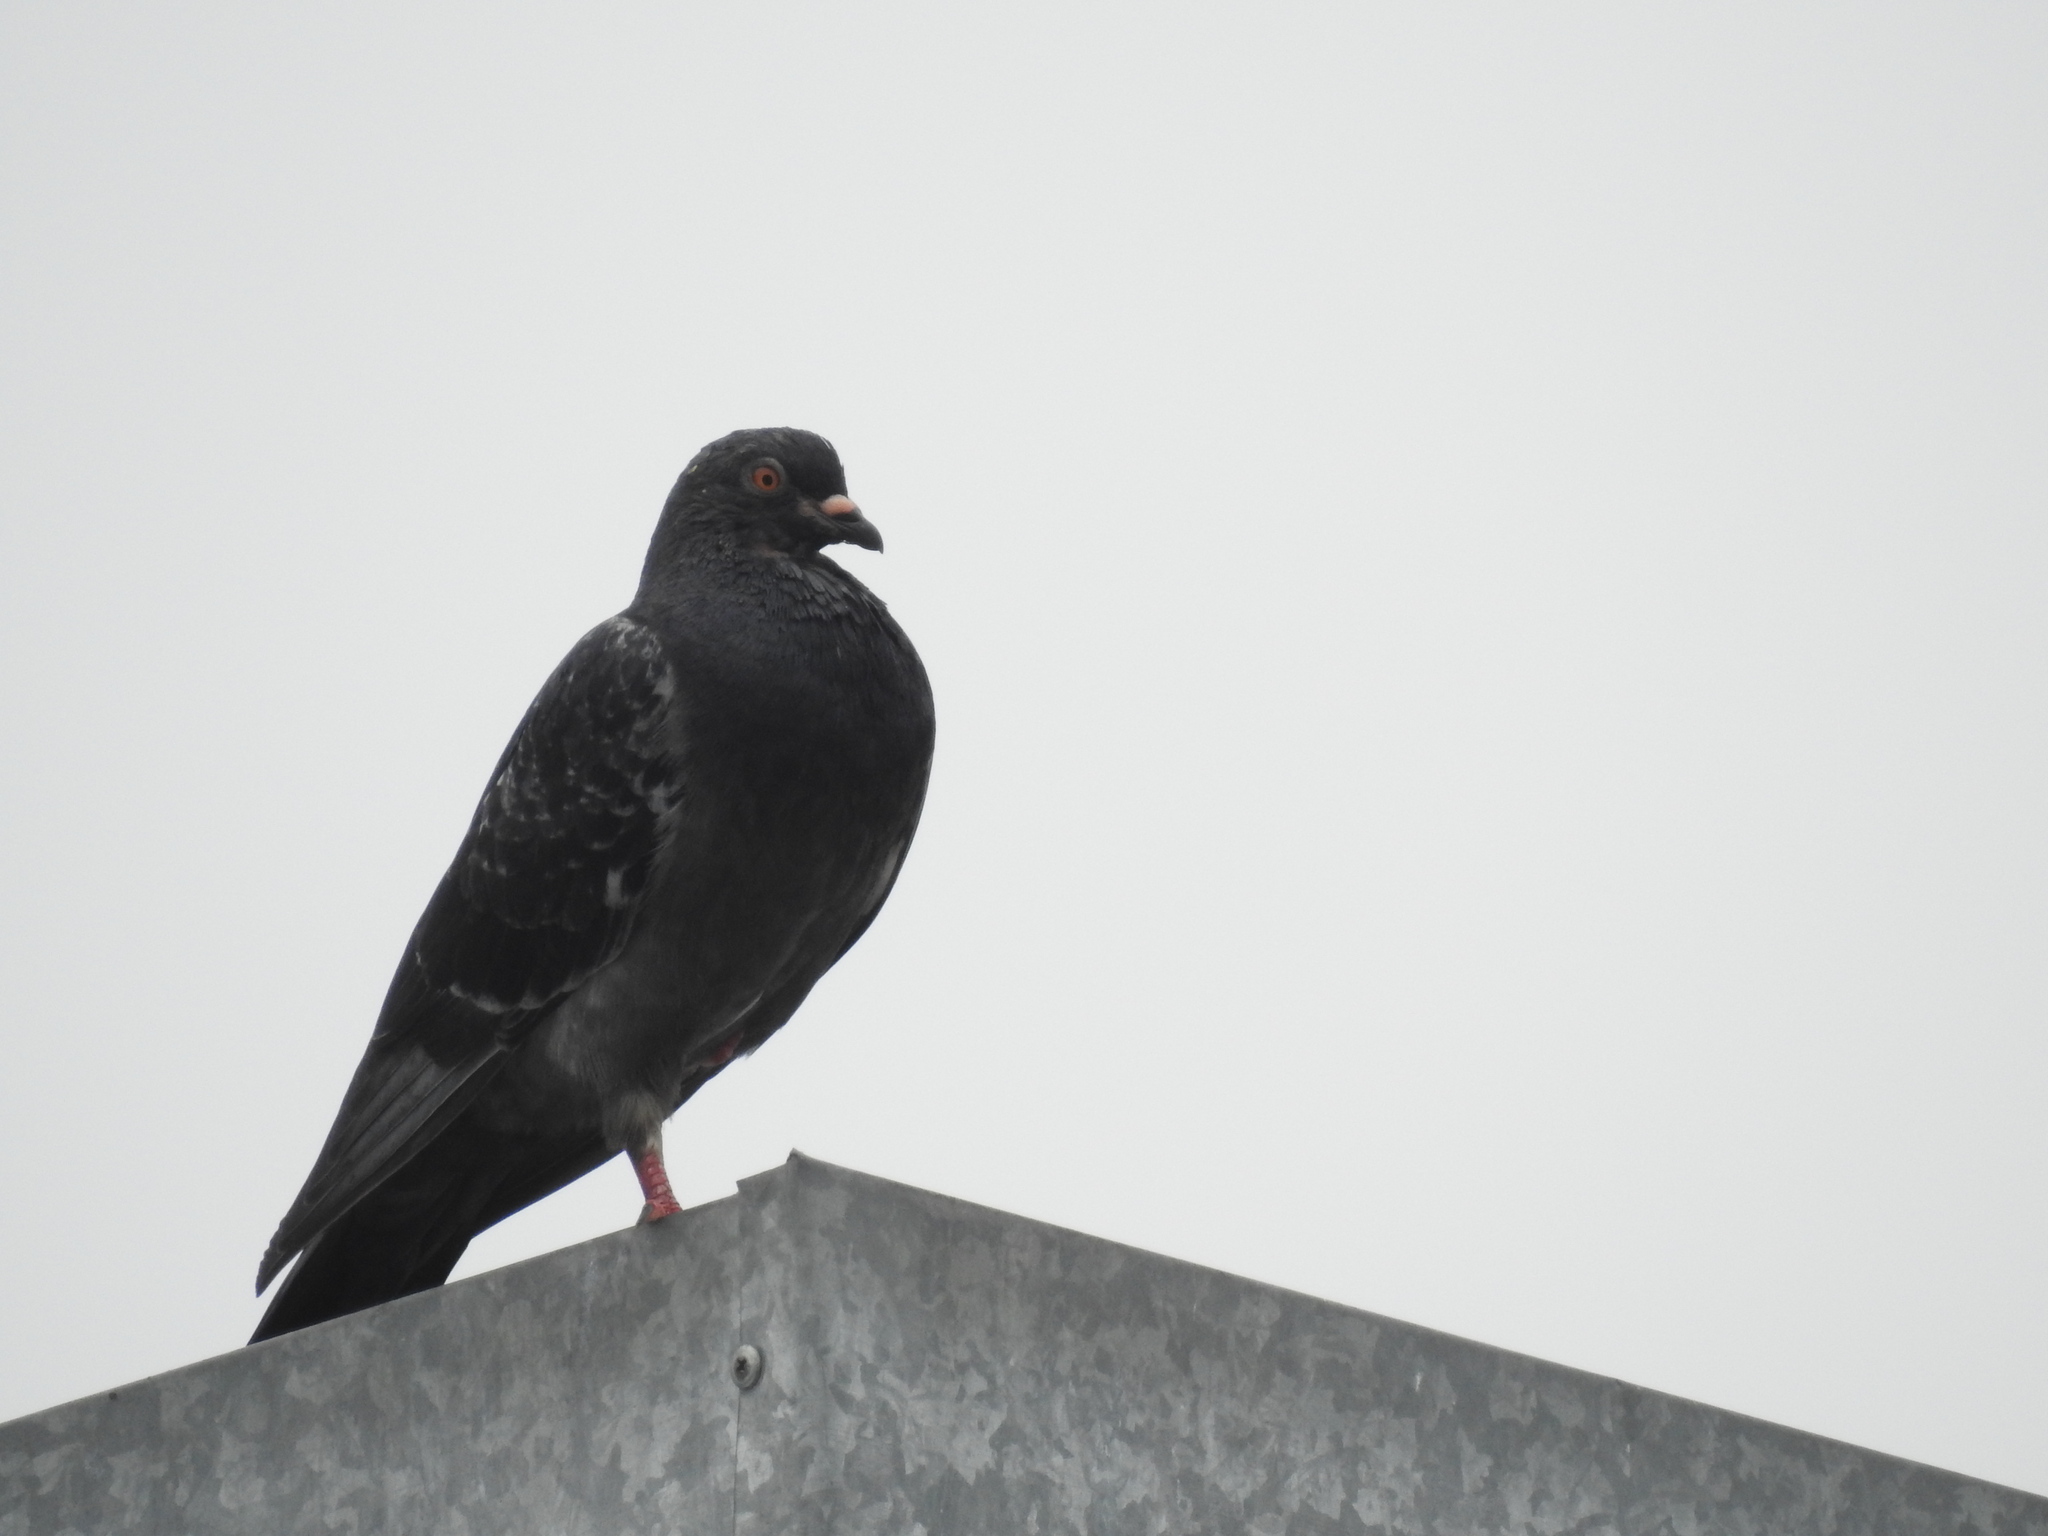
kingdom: Animalia
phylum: Chordata
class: Aves
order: Columbiformes
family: Columbidae
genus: Columba
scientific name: Columba livia
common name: Rock pigeon
